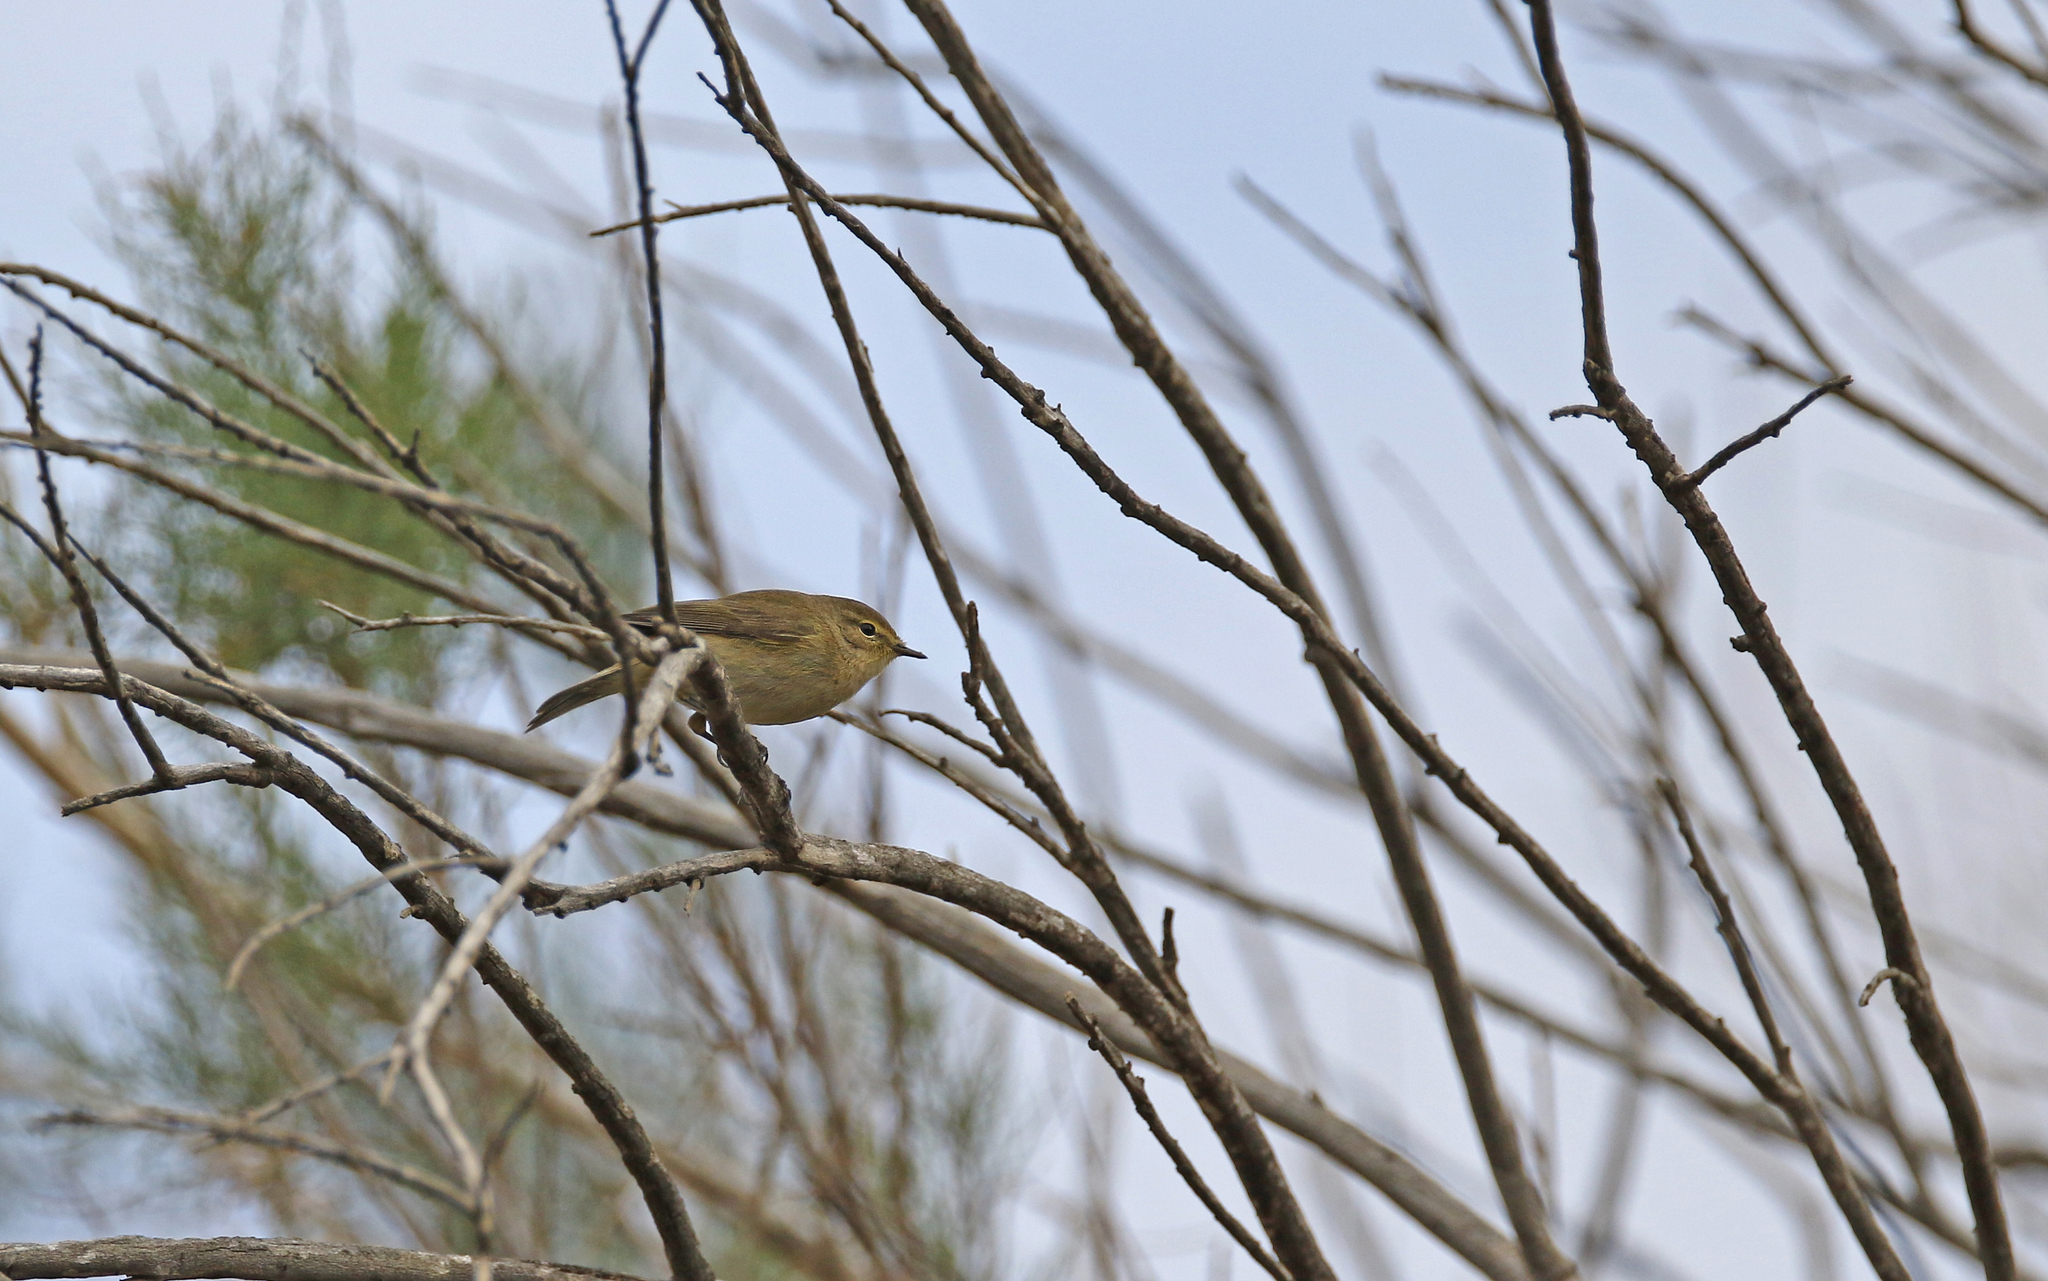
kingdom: Animalia
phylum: Chordata
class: Aves
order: Passeriformes
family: Phylloscopidae
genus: Phylloscopus
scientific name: Phylloscopus collybita
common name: Common chiffchaff
